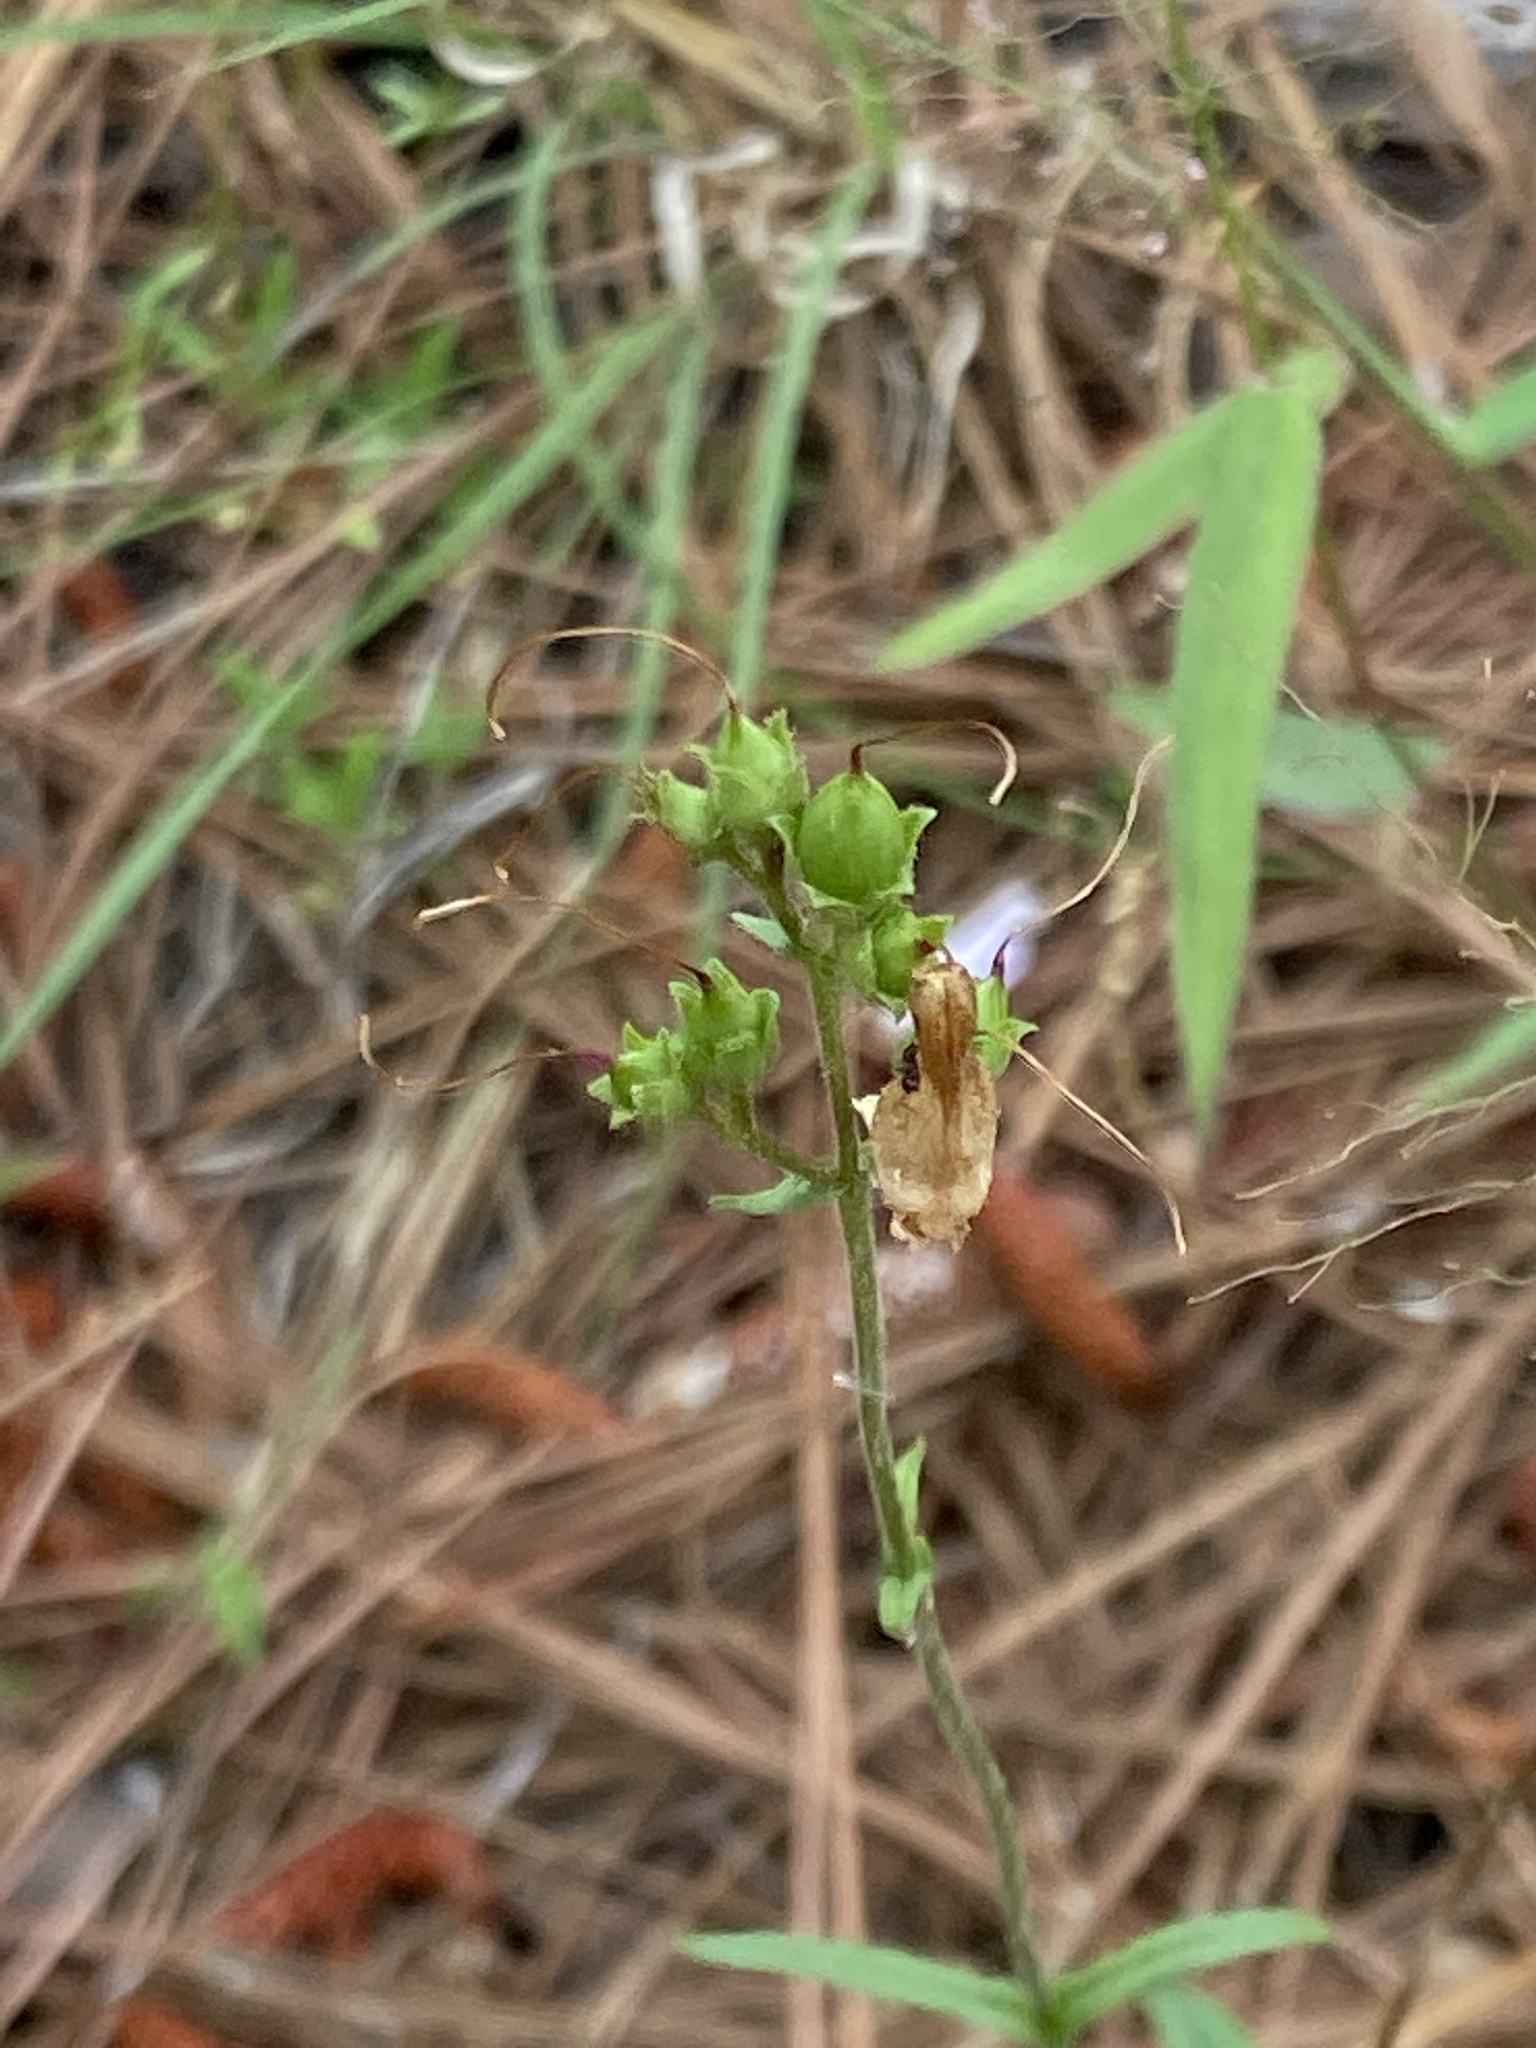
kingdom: Plantae
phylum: Tracheophyta
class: Magnoliopsida
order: Lamiales
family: Plantaginaceae
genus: Penstemon
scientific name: Penstemon australis
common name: Southeastern beardtongue
